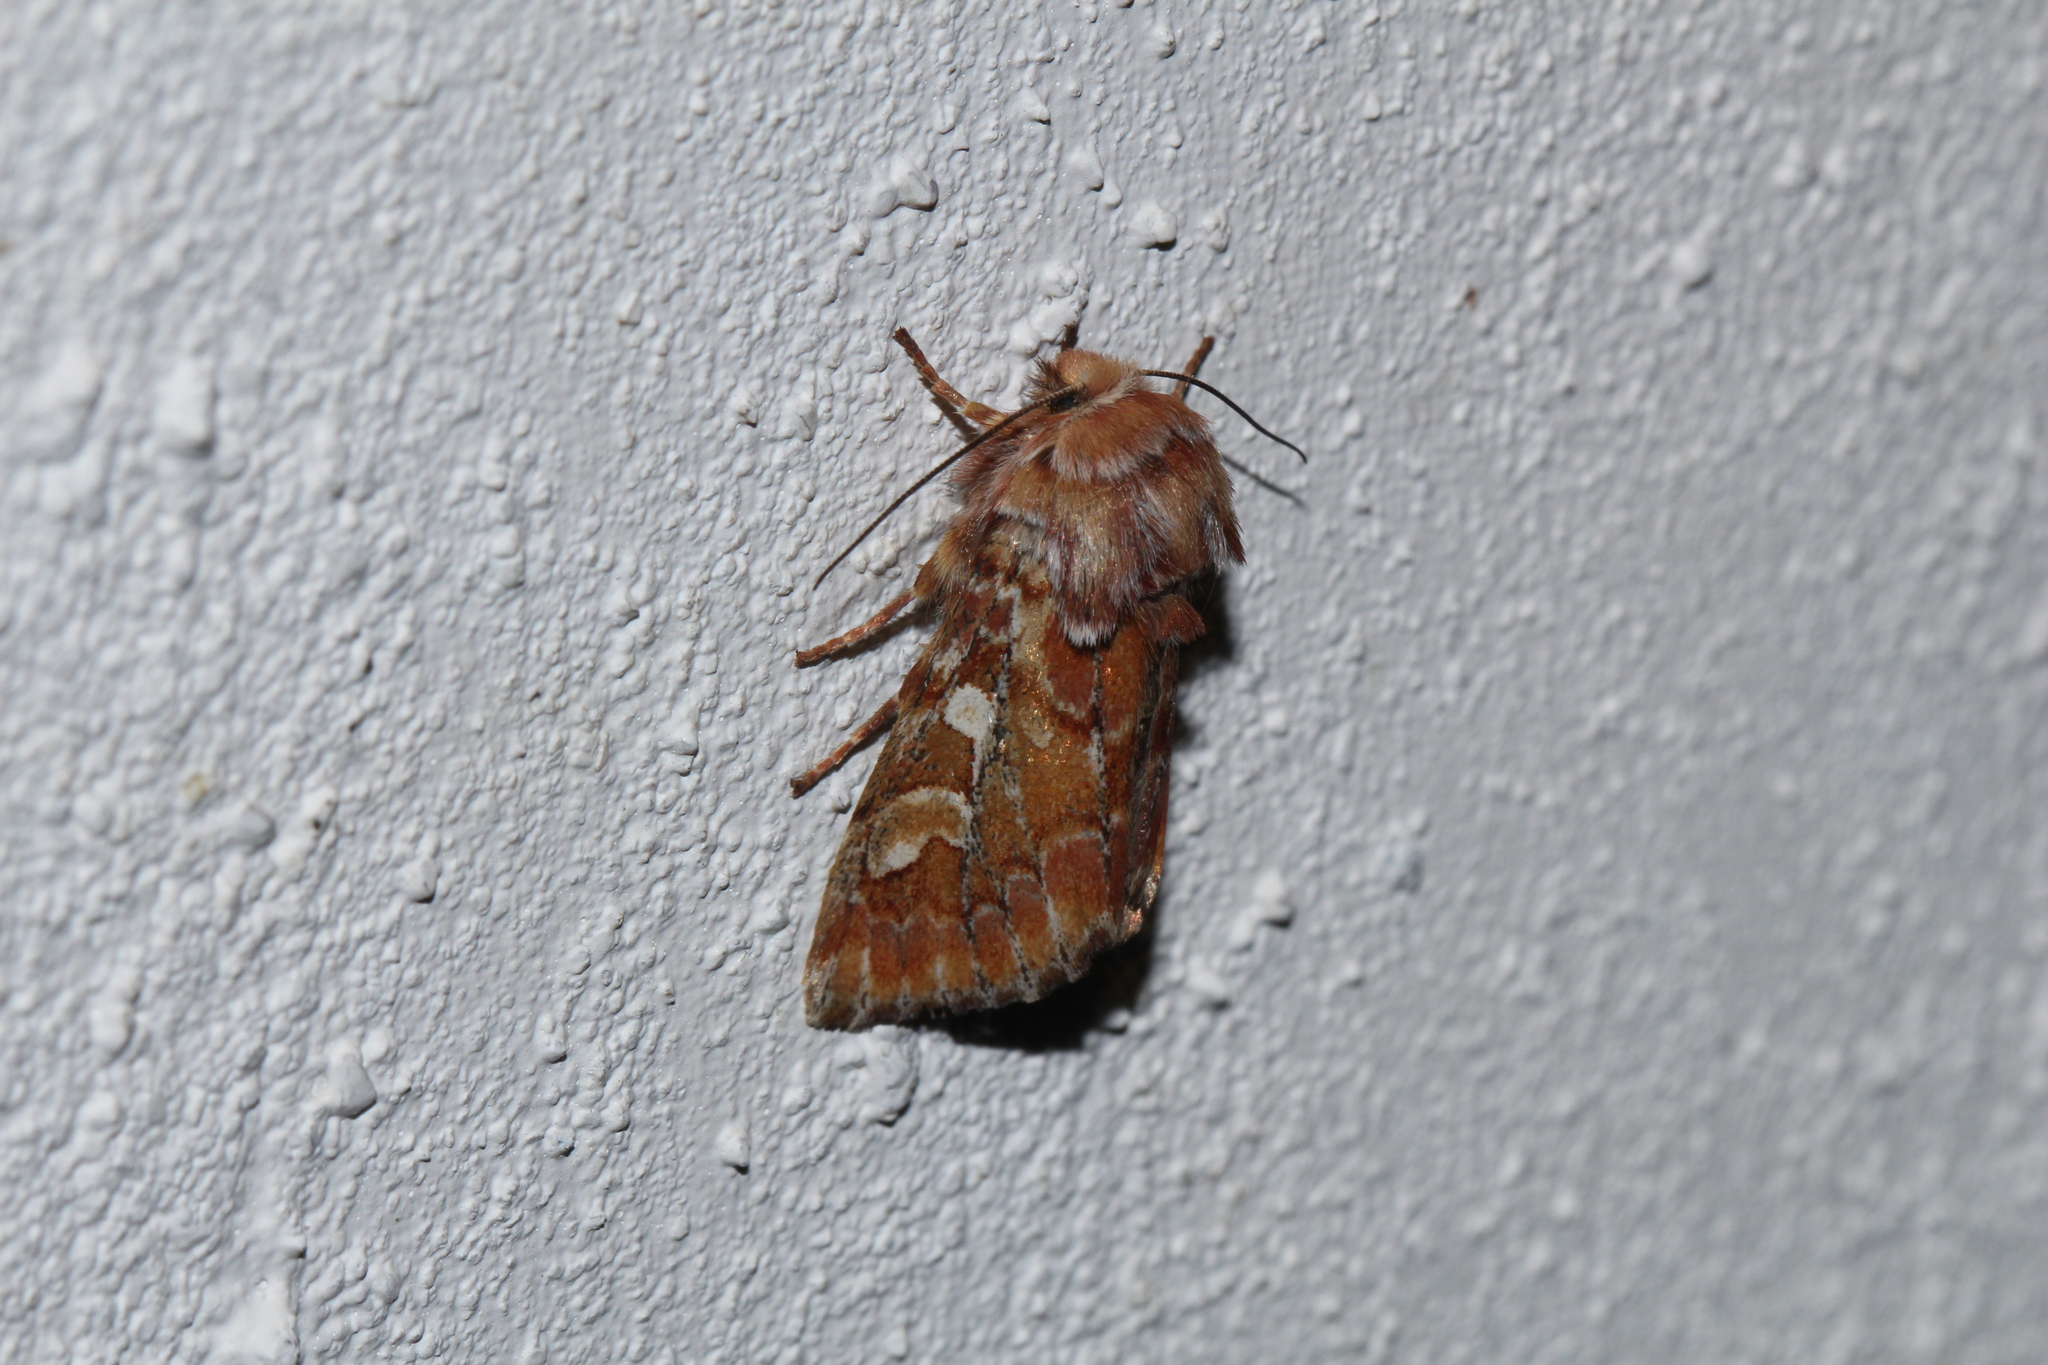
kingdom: Animalia
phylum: Arthropoda
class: Insecta
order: Lepidoptera
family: Noctuidae
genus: Panolis
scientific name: Panolis flammea
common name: Pine beauty
